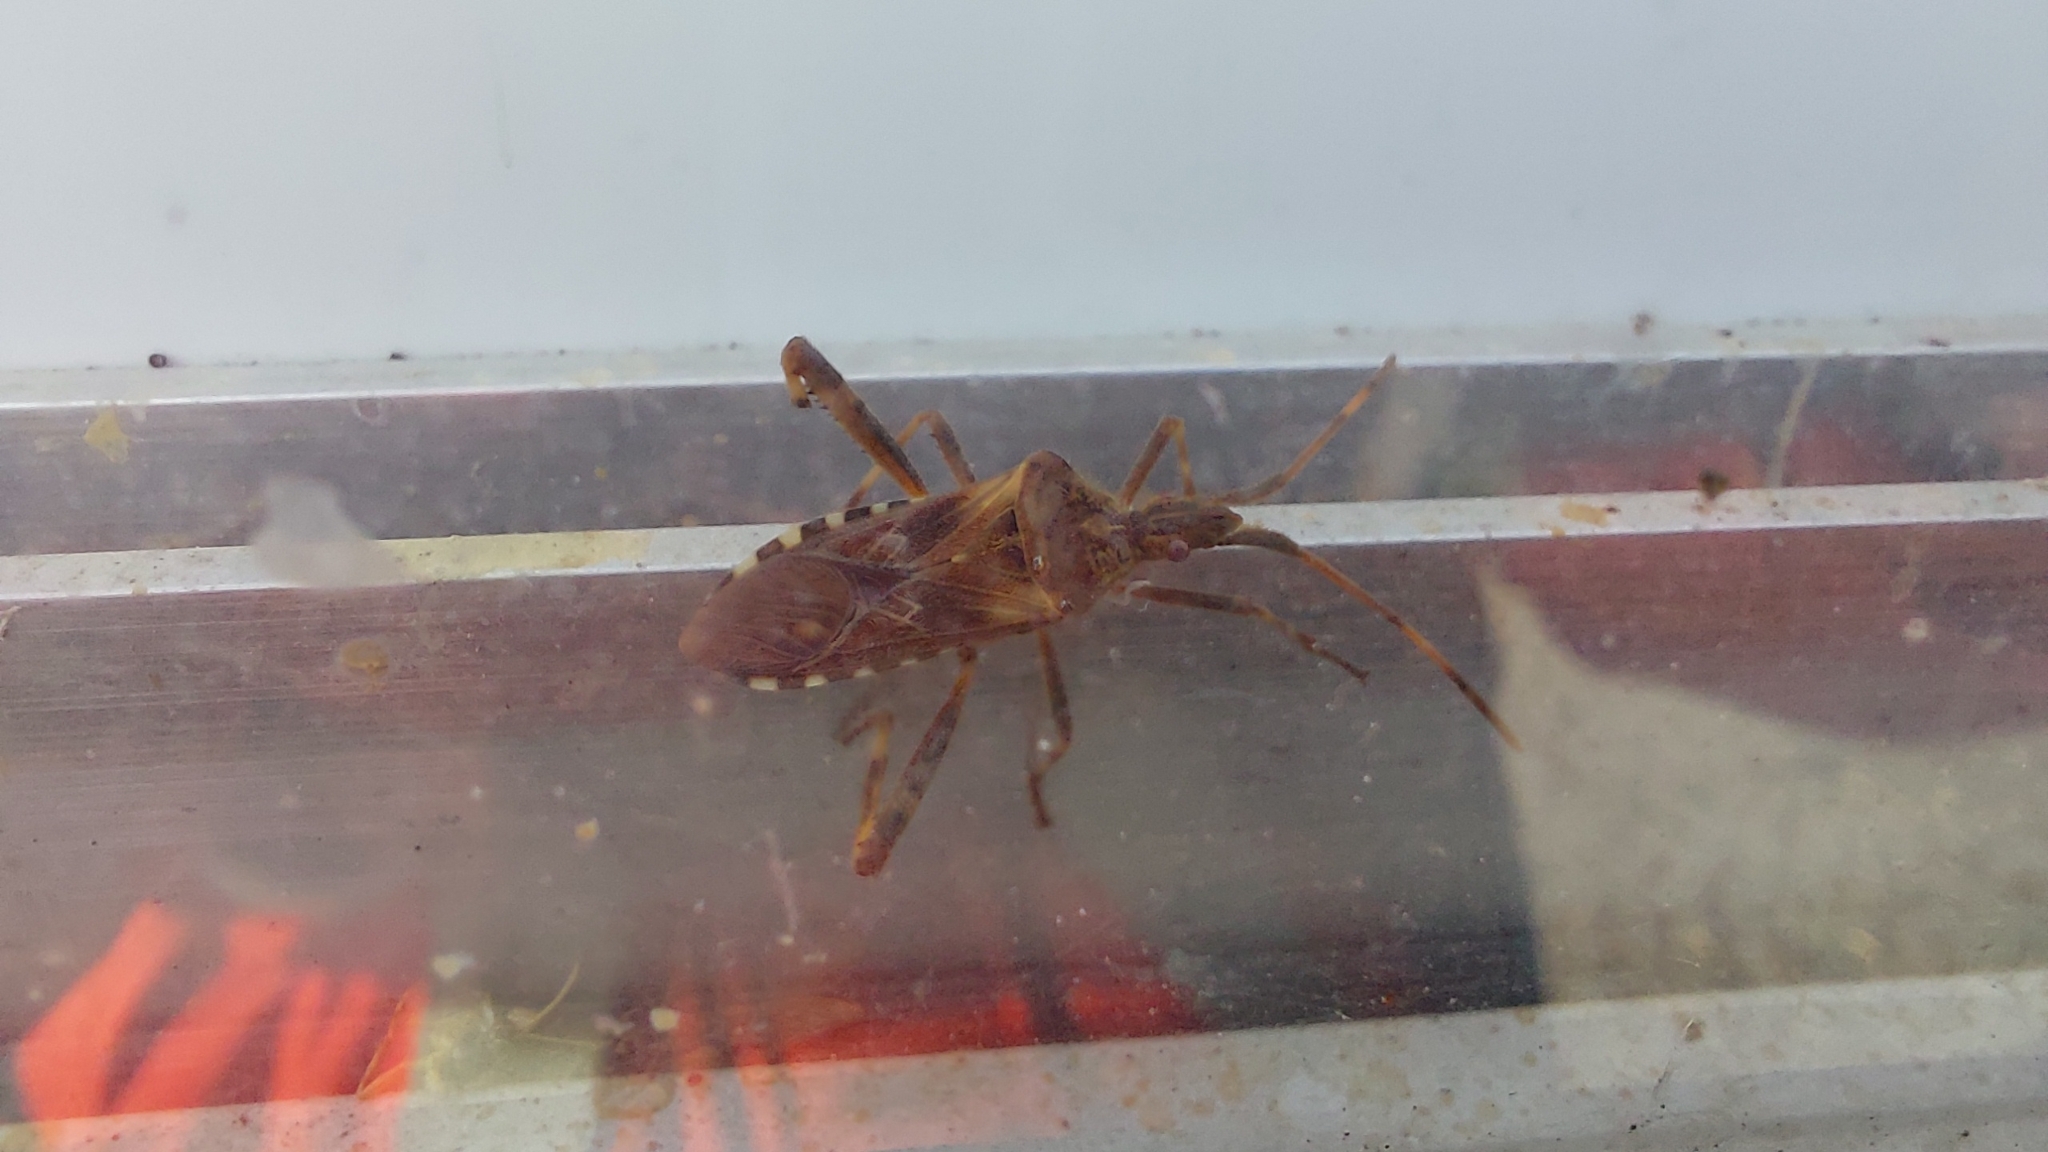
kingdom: Animalia
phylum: Arthropoda
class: Insecta
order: Hemiptera
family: Coreidae
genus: Leptoglossus
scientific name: Leptoglossus occidentalis
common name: Western conifer-seed bug
